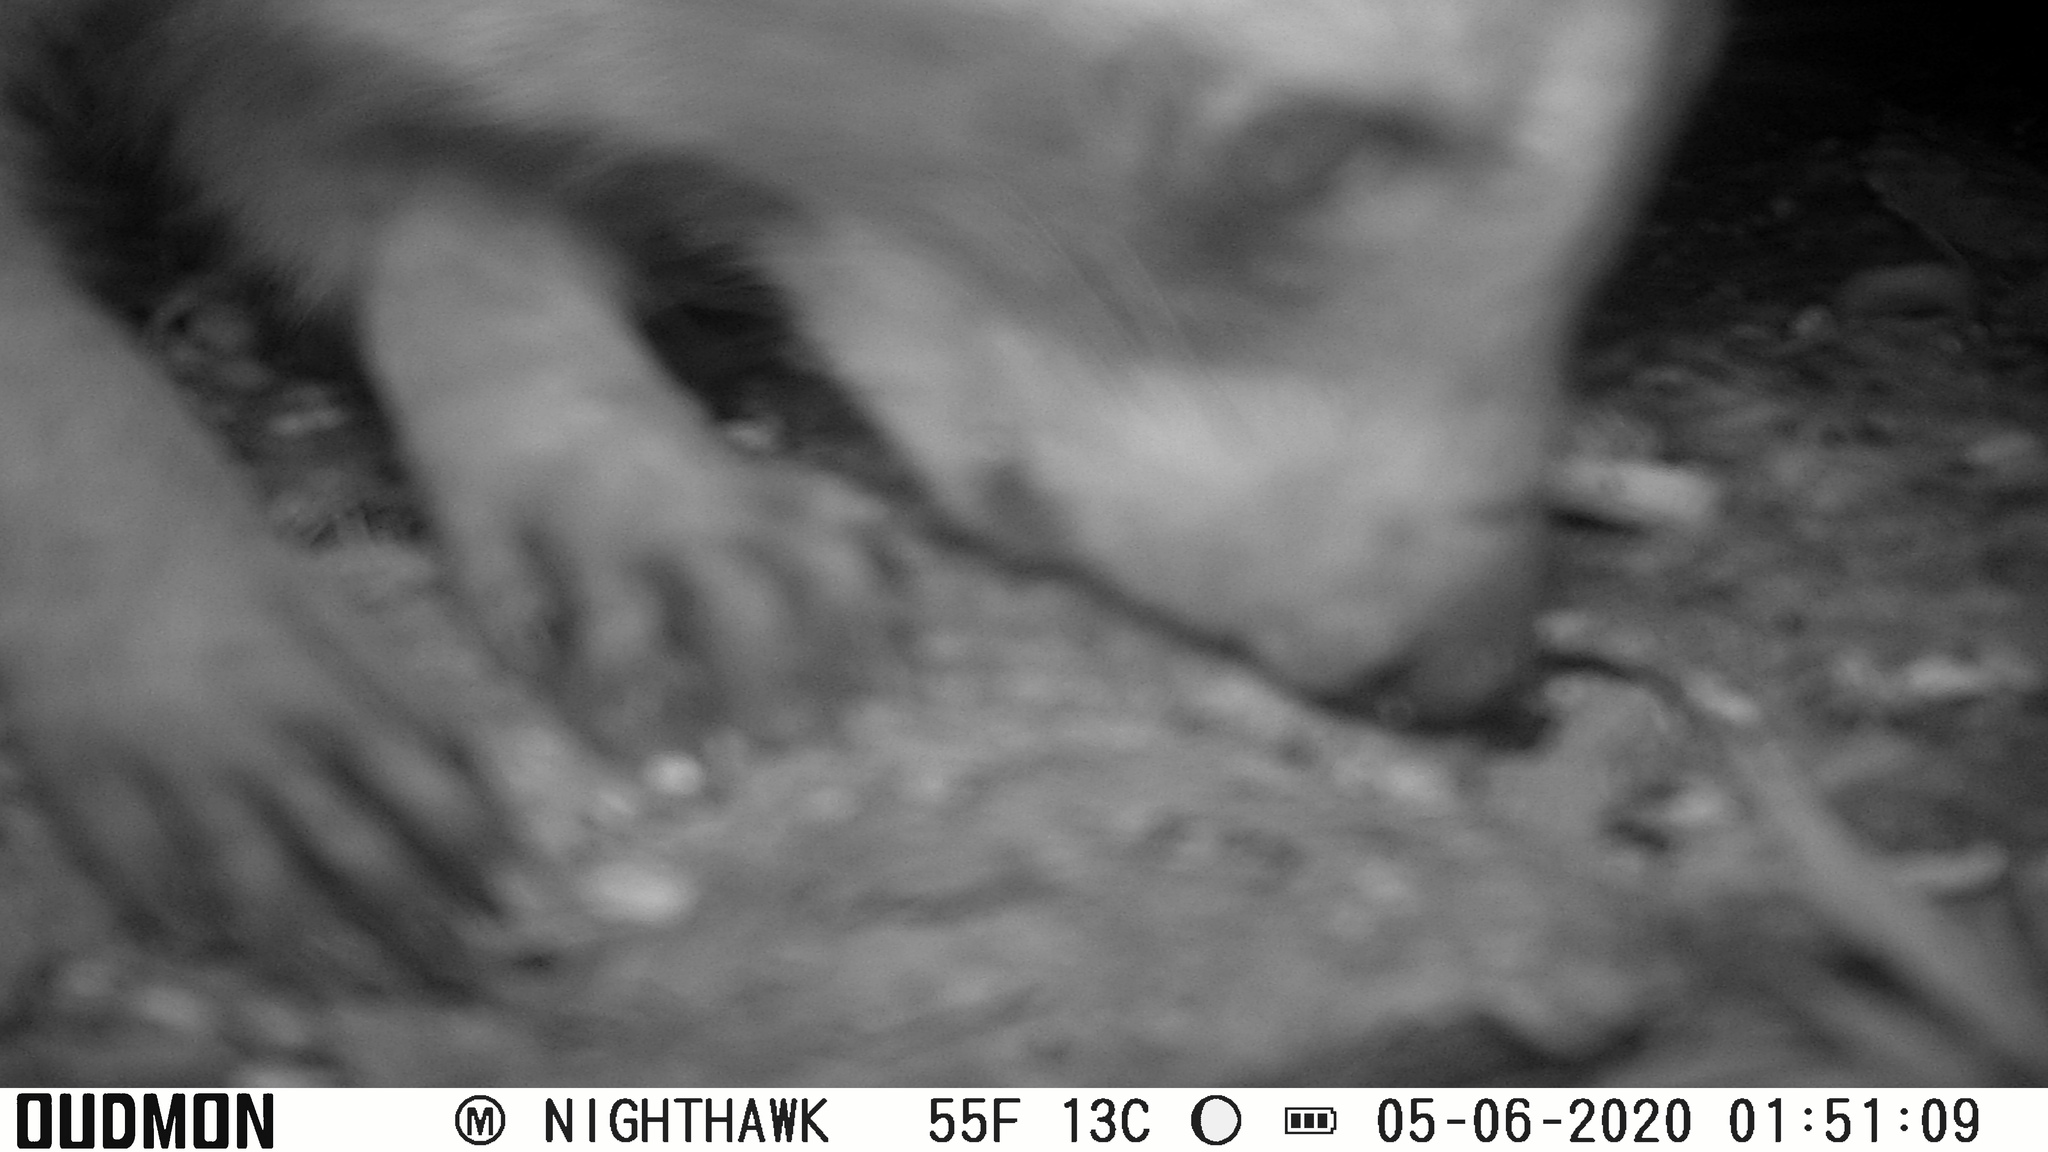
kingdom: Animalia
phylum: Chordata
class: Mammalia
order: Carnivora
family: Procyonidae
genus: Procyon
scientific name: Procyon lotor
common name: Raccoon
